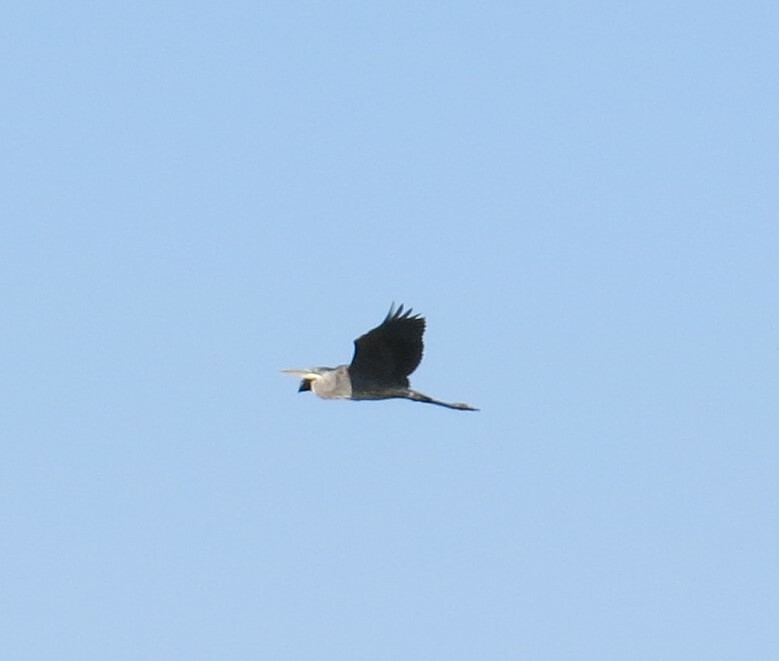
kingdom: Animalia
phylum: Chordata
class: Aves
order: Pelecaniformes
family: Ardeidae
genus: Ardea
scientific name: Ardea herodias
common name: Great blue heron
